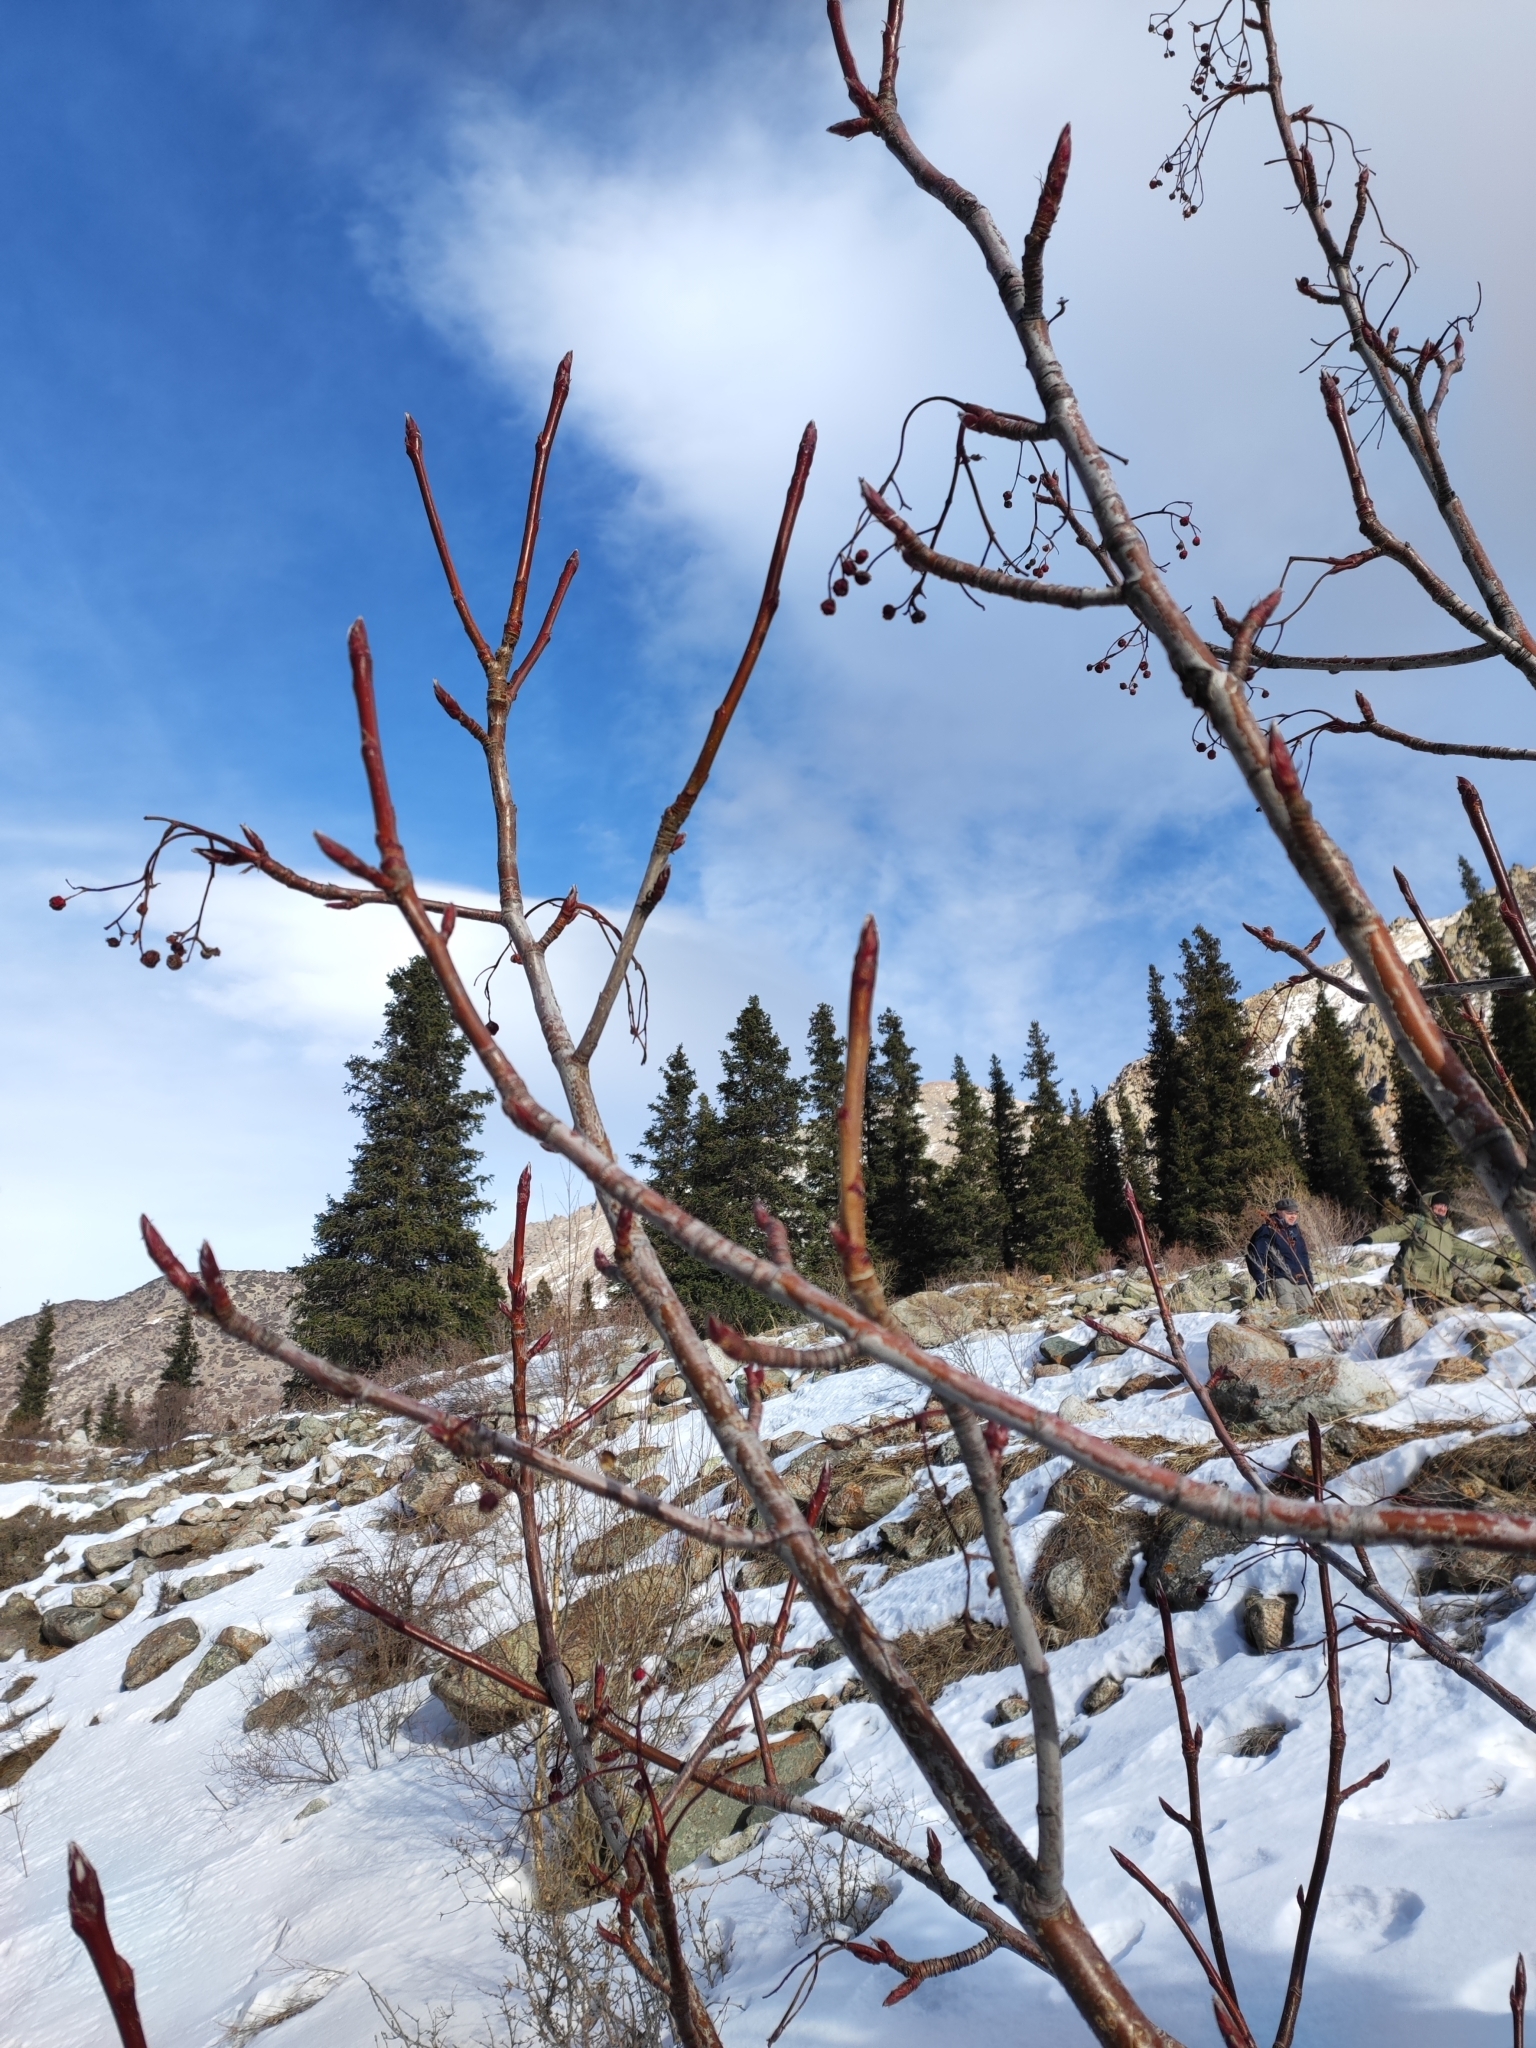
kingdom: Plantae
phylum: Tracheophyta
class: Magnoliopsida
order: Rosales
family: Rosaceae
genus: Sorbus
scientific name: Sorbus tianschanica
